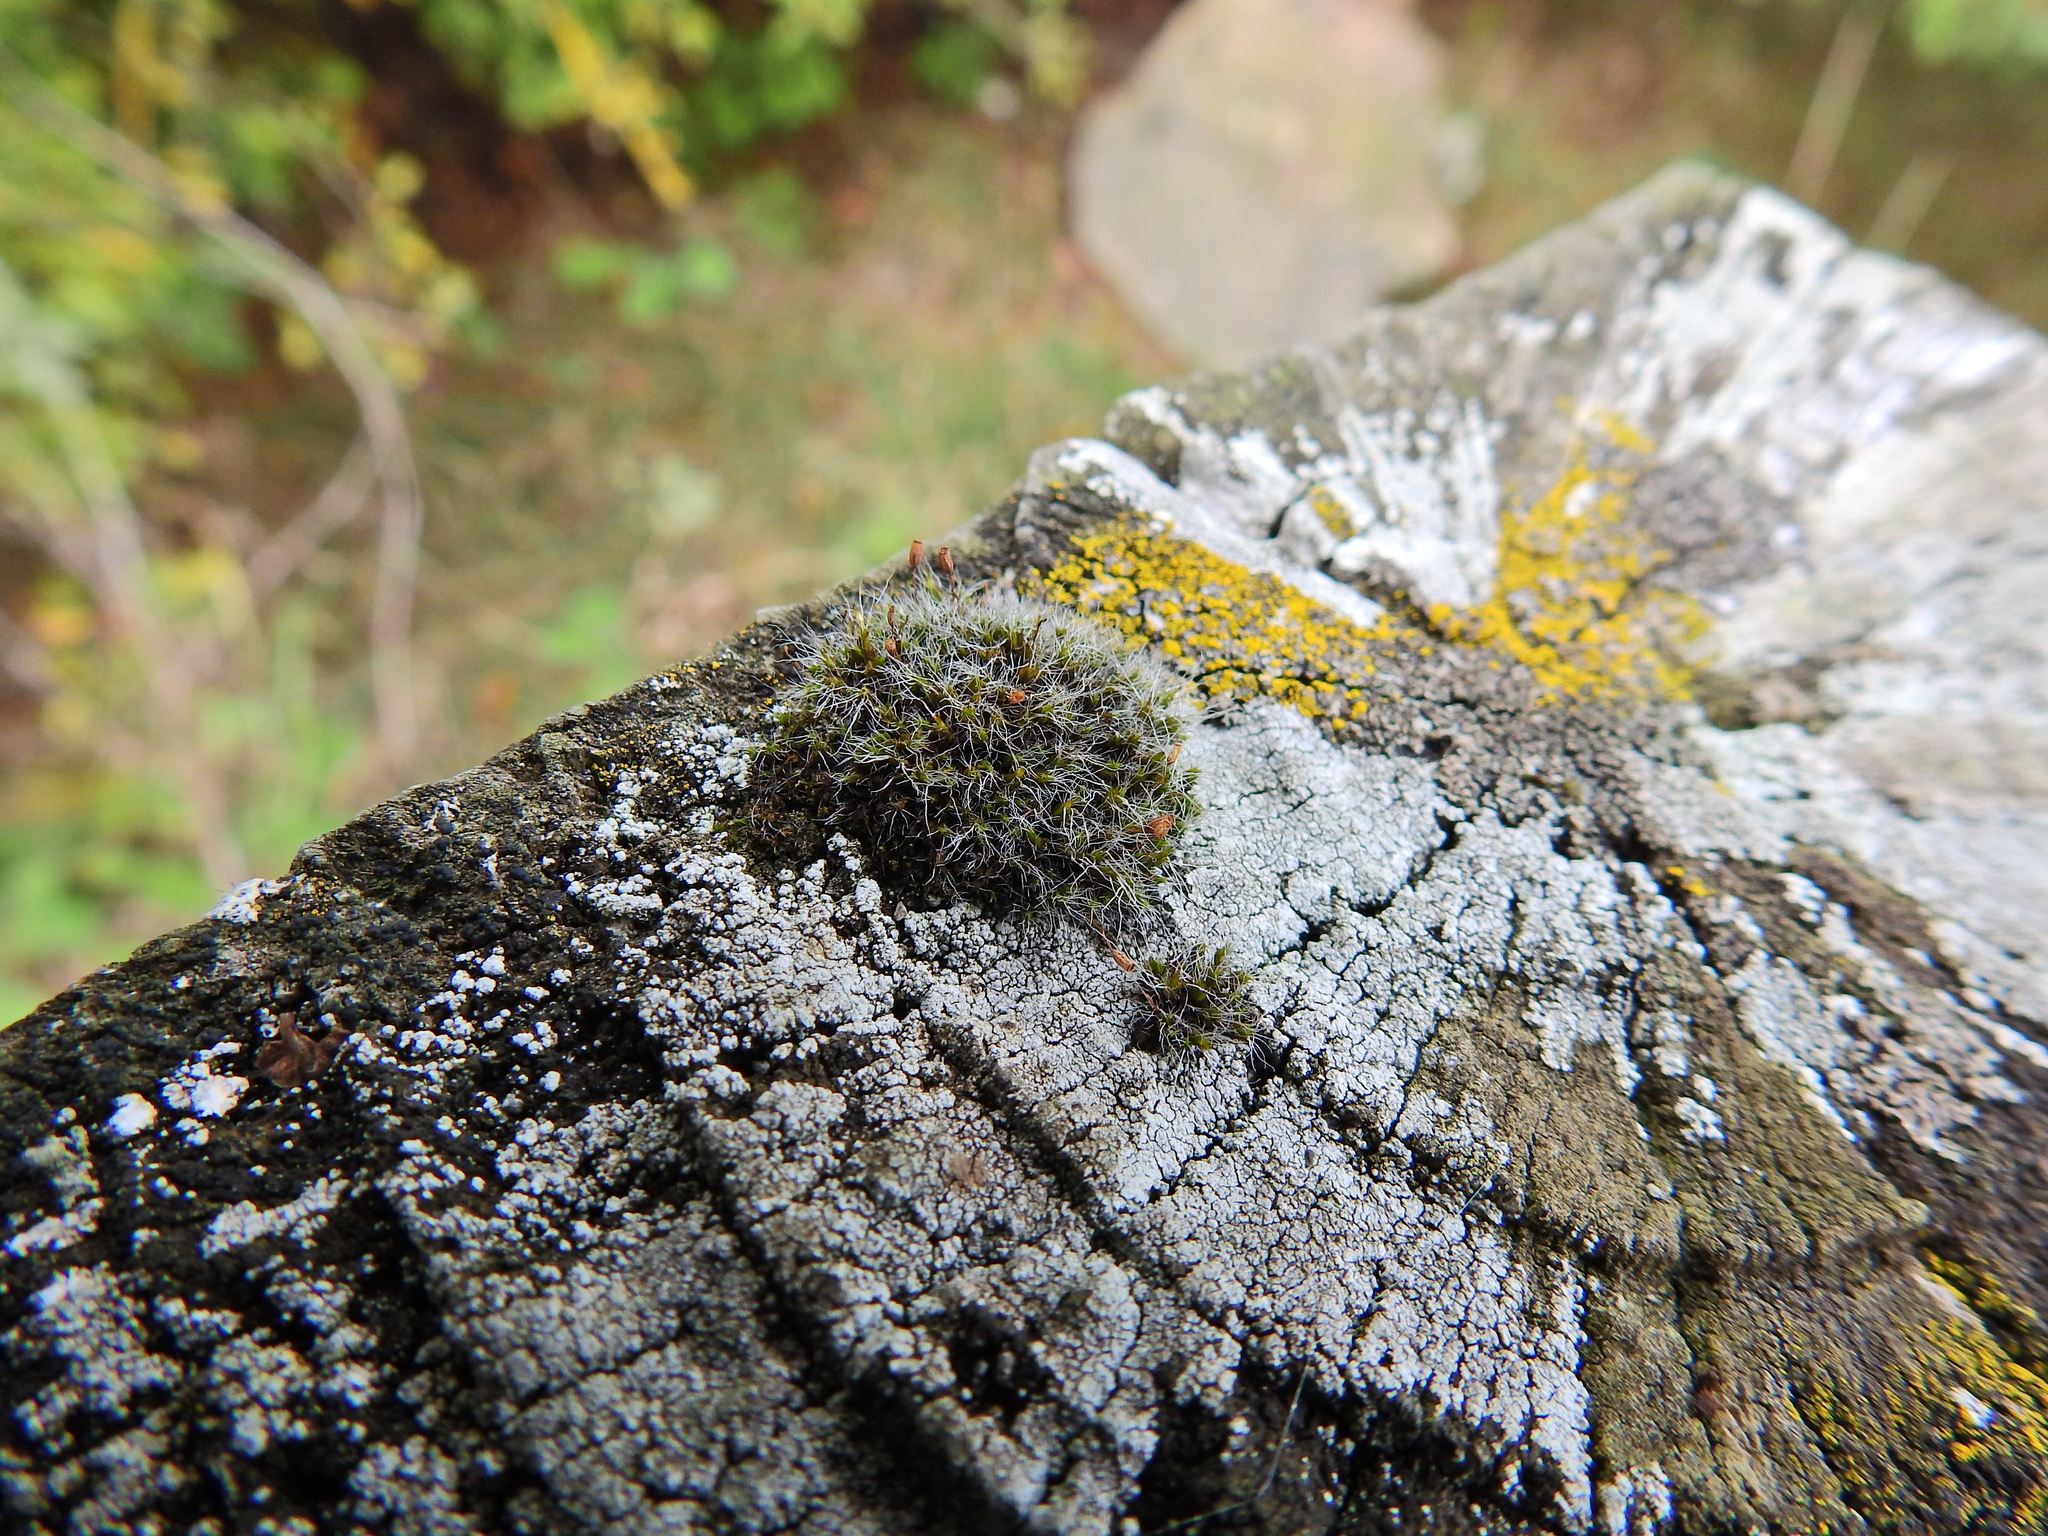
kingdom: Plantae
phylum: Bryophyta
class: Bryopsida
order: Grimmiales
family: Grimmiaceae
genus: Grimmia
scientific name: Grimmia pulvinata
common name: Grey-cushioned grimmia
